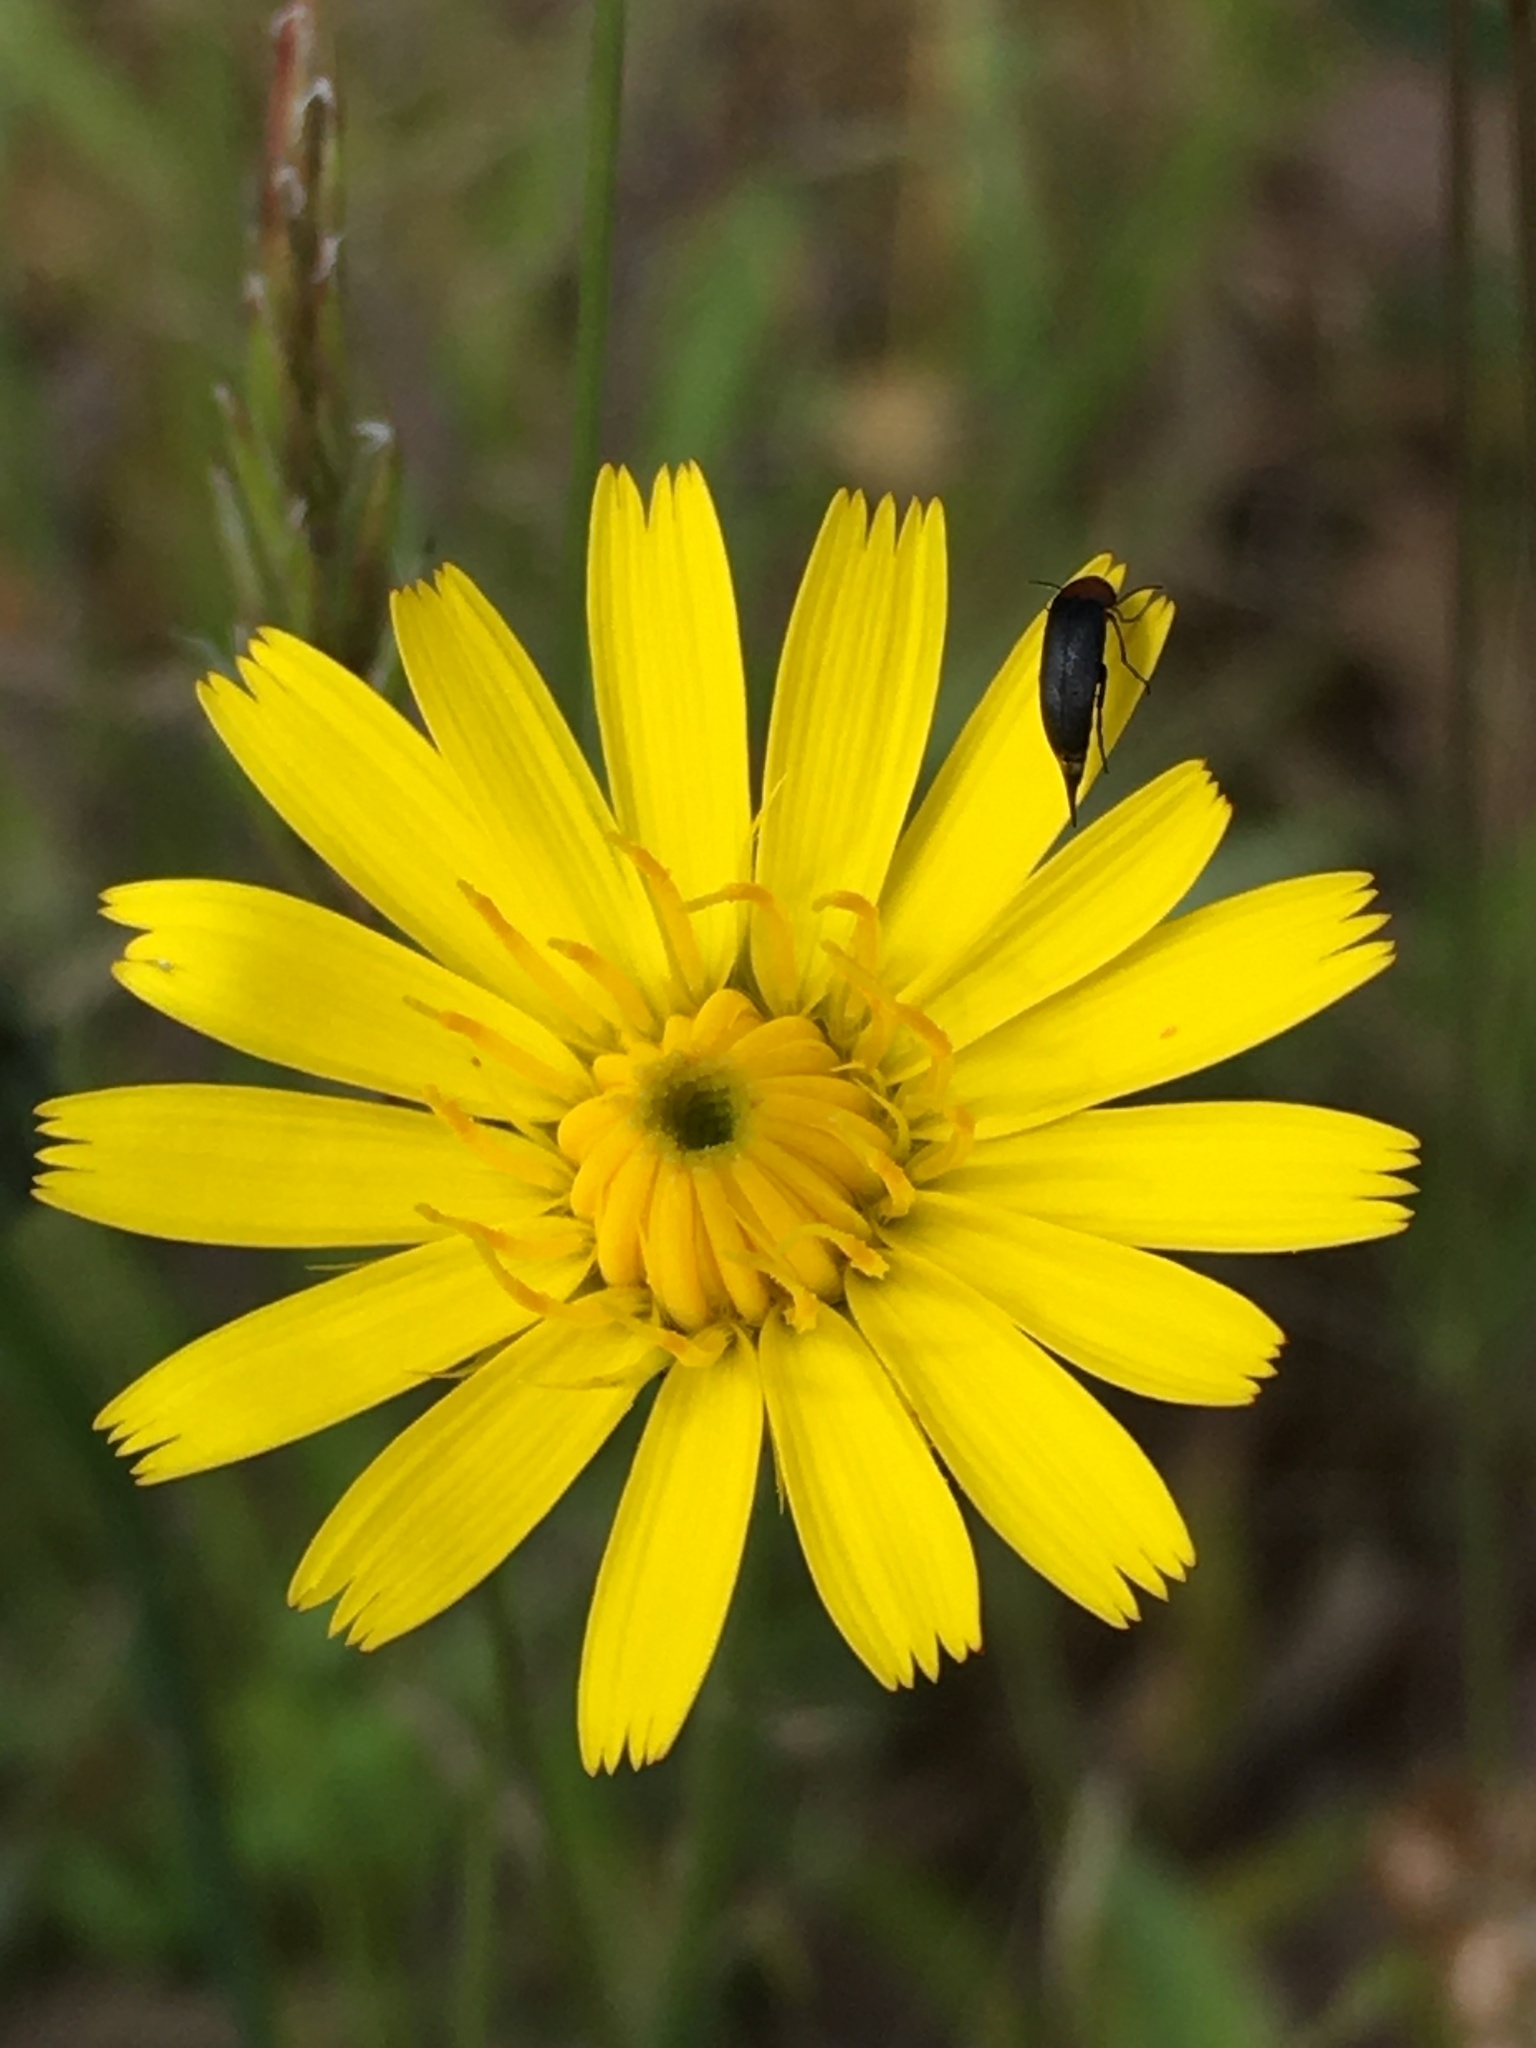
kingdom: Plantae
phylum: Tracheophyta
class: Magnoliopsida
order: Asterales
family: Asteraceae
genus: Hypochaeris
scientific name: Hypochaeris radicata
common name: Flatweed
